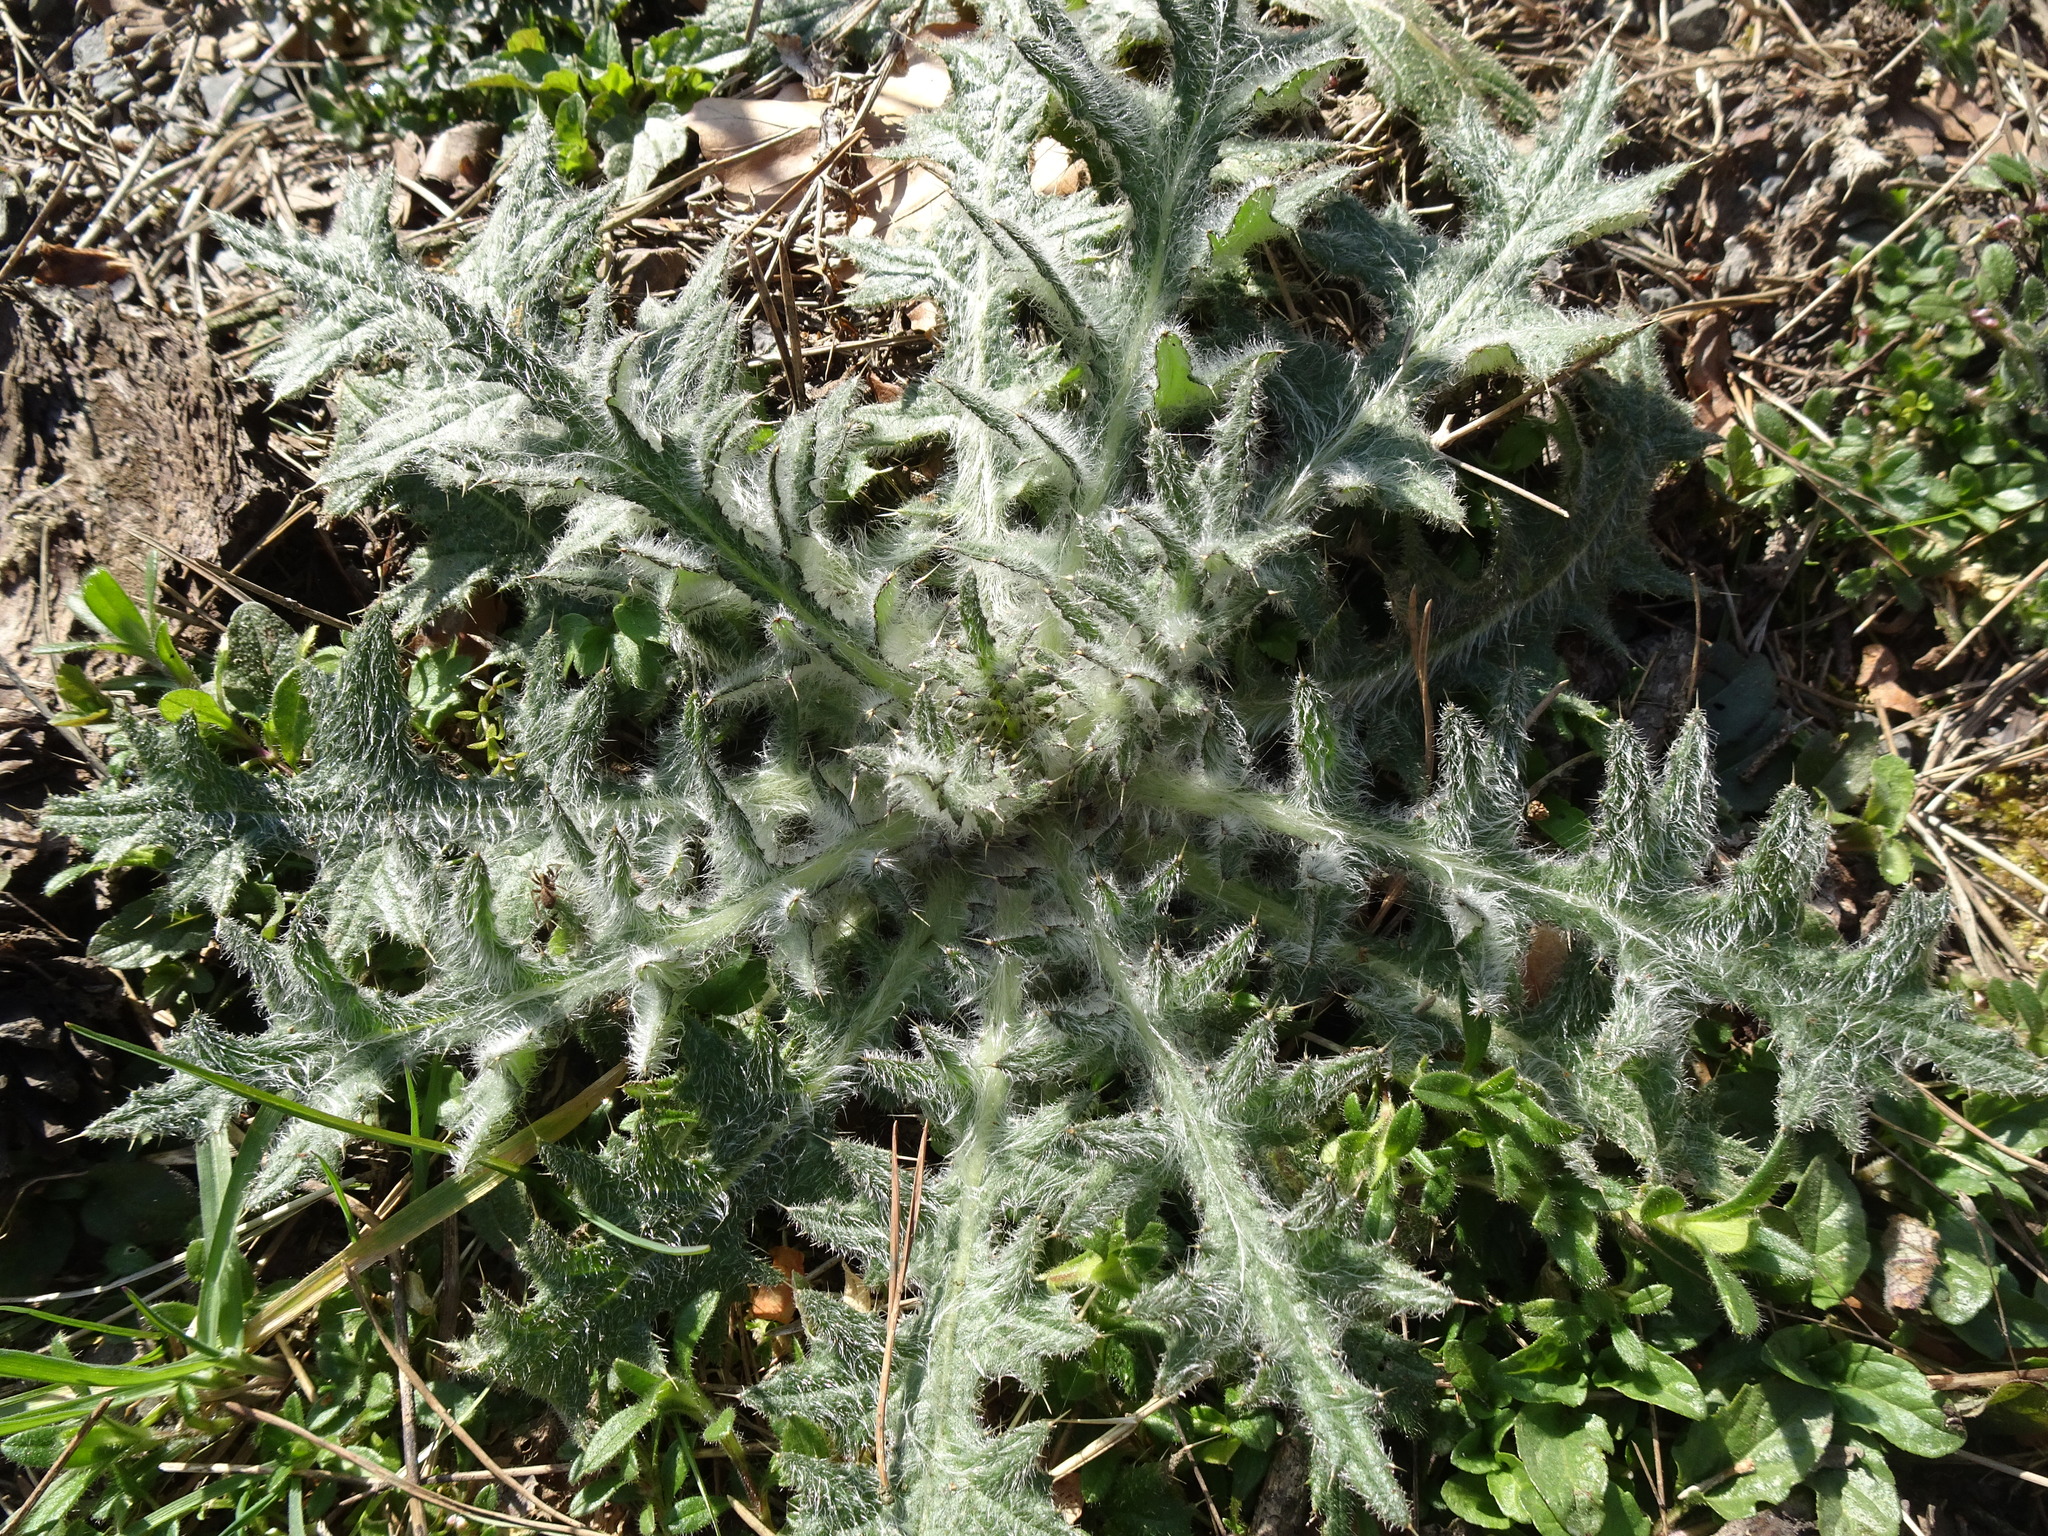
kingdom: Plantae
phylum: Tracheophyta
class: Magnoliopsida
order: Asterales
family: Asteraceae
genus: Cirsium
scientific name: Cirsium vulgare
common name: Bull thistle
